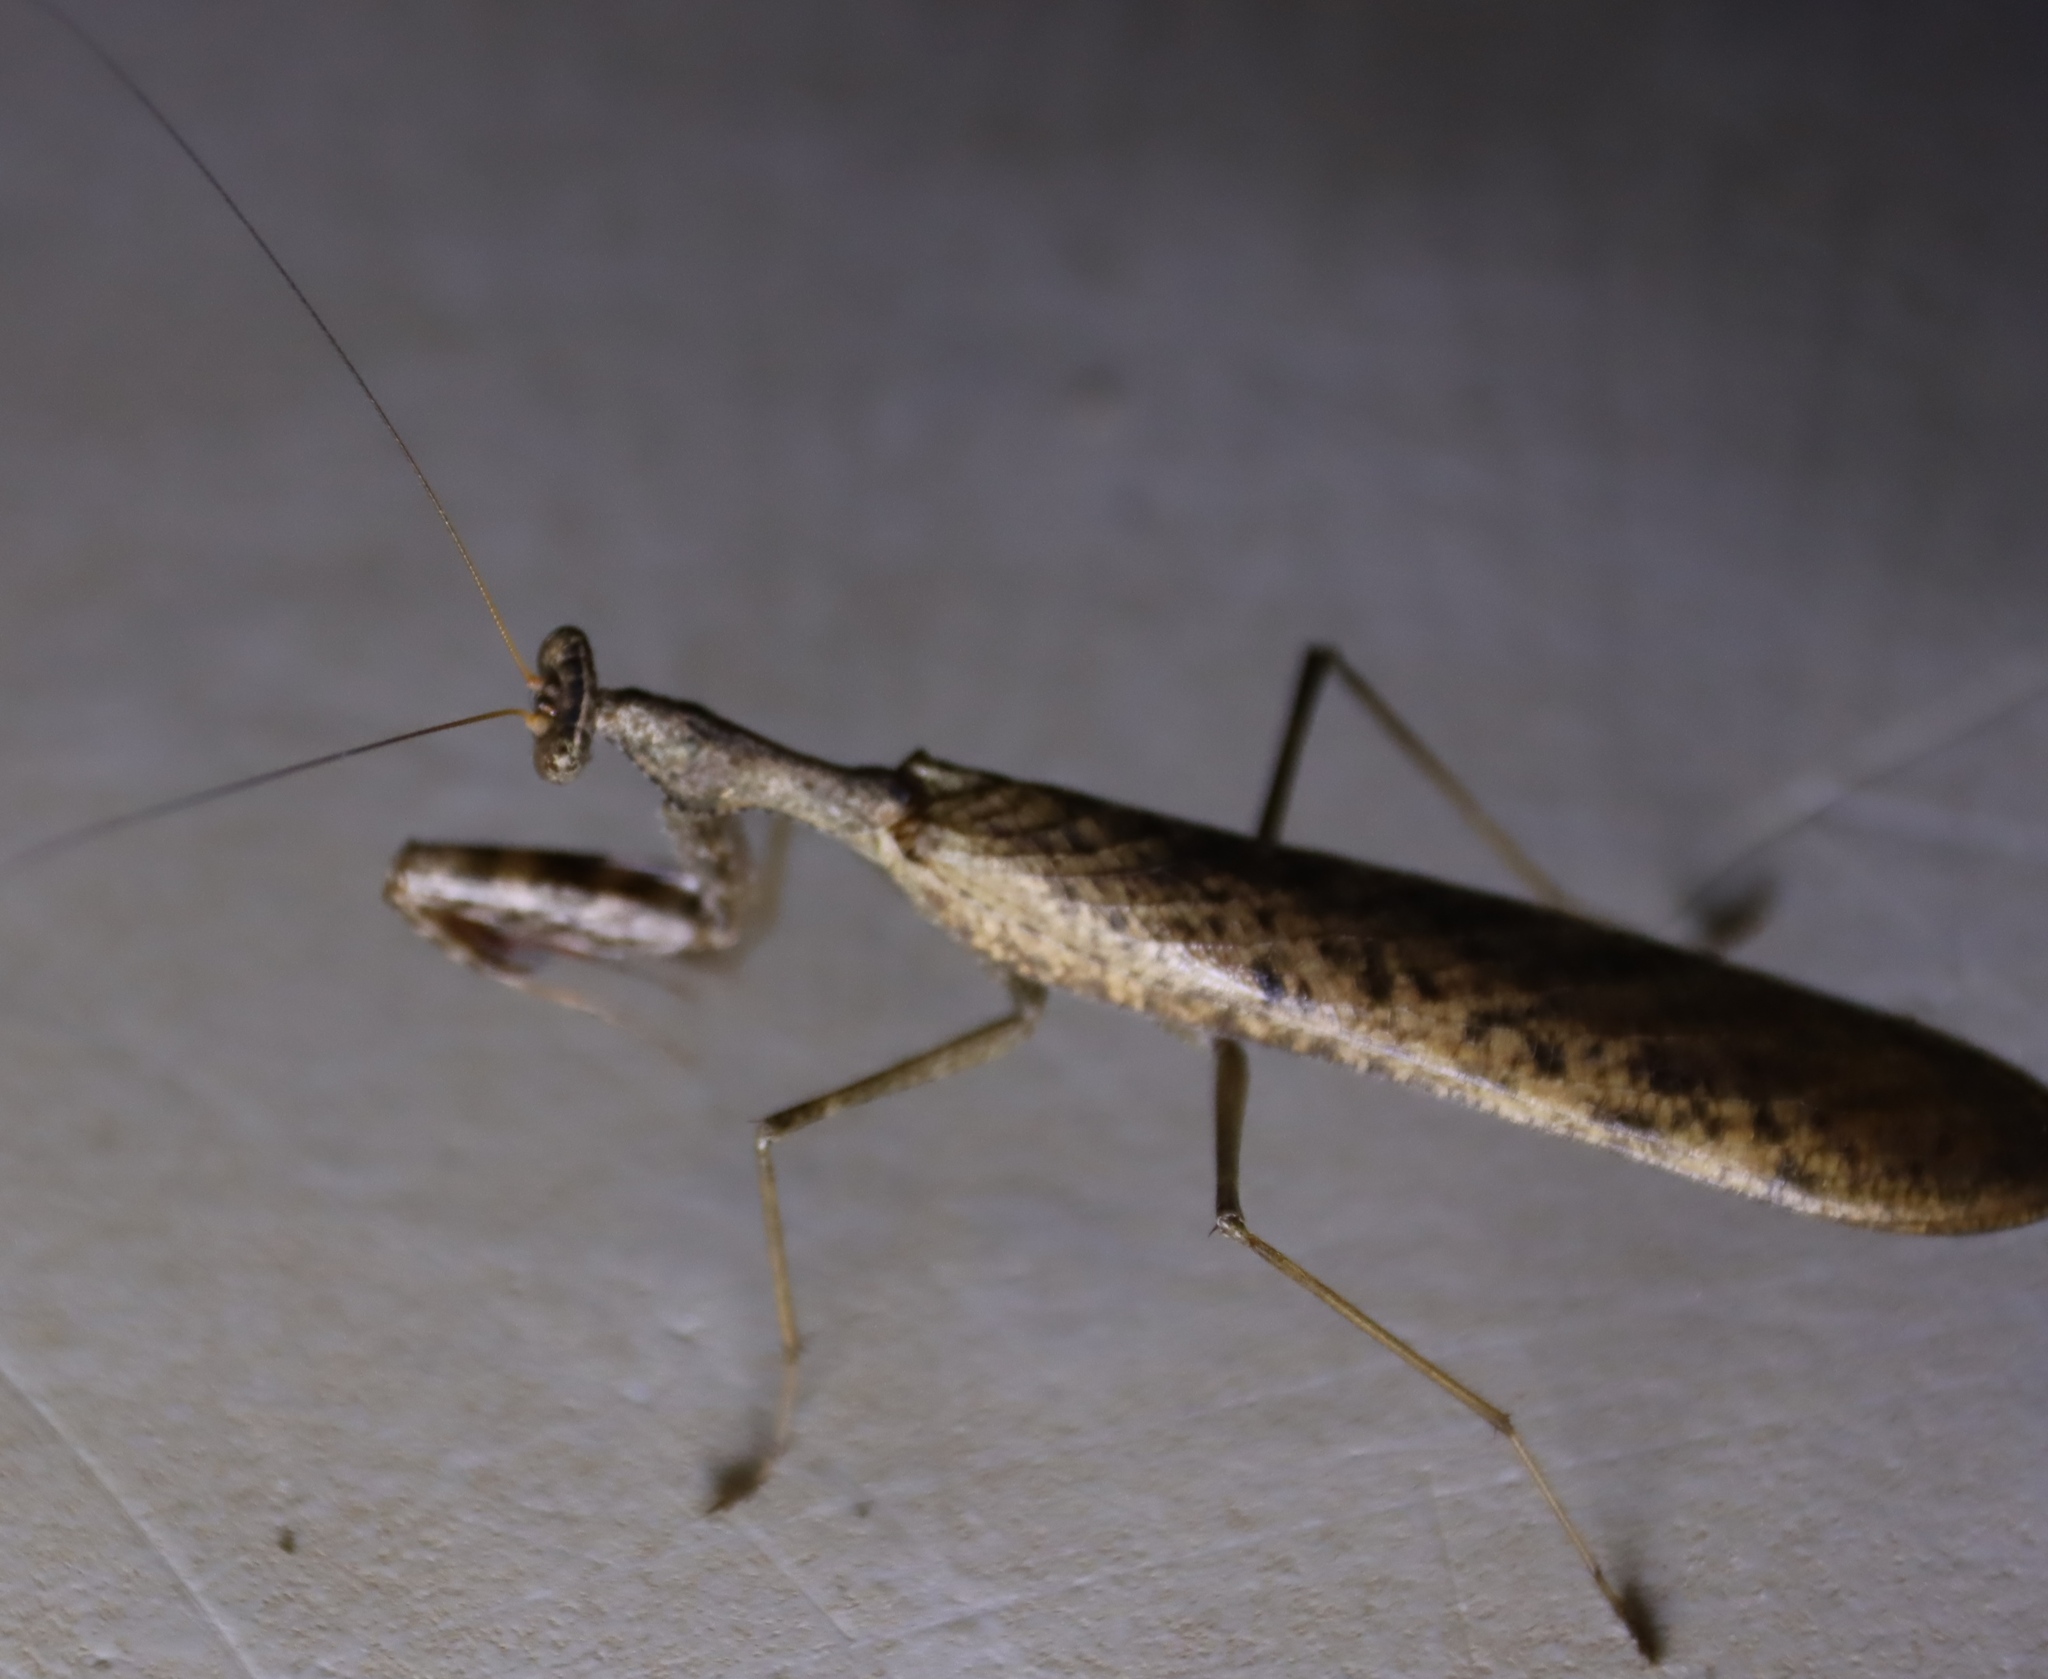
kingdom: Animalia
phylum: Arthropoda
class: Insecta
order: Mantodea
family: Chroicopteridae
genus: Dystacta
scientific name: Dystacta alticeps
